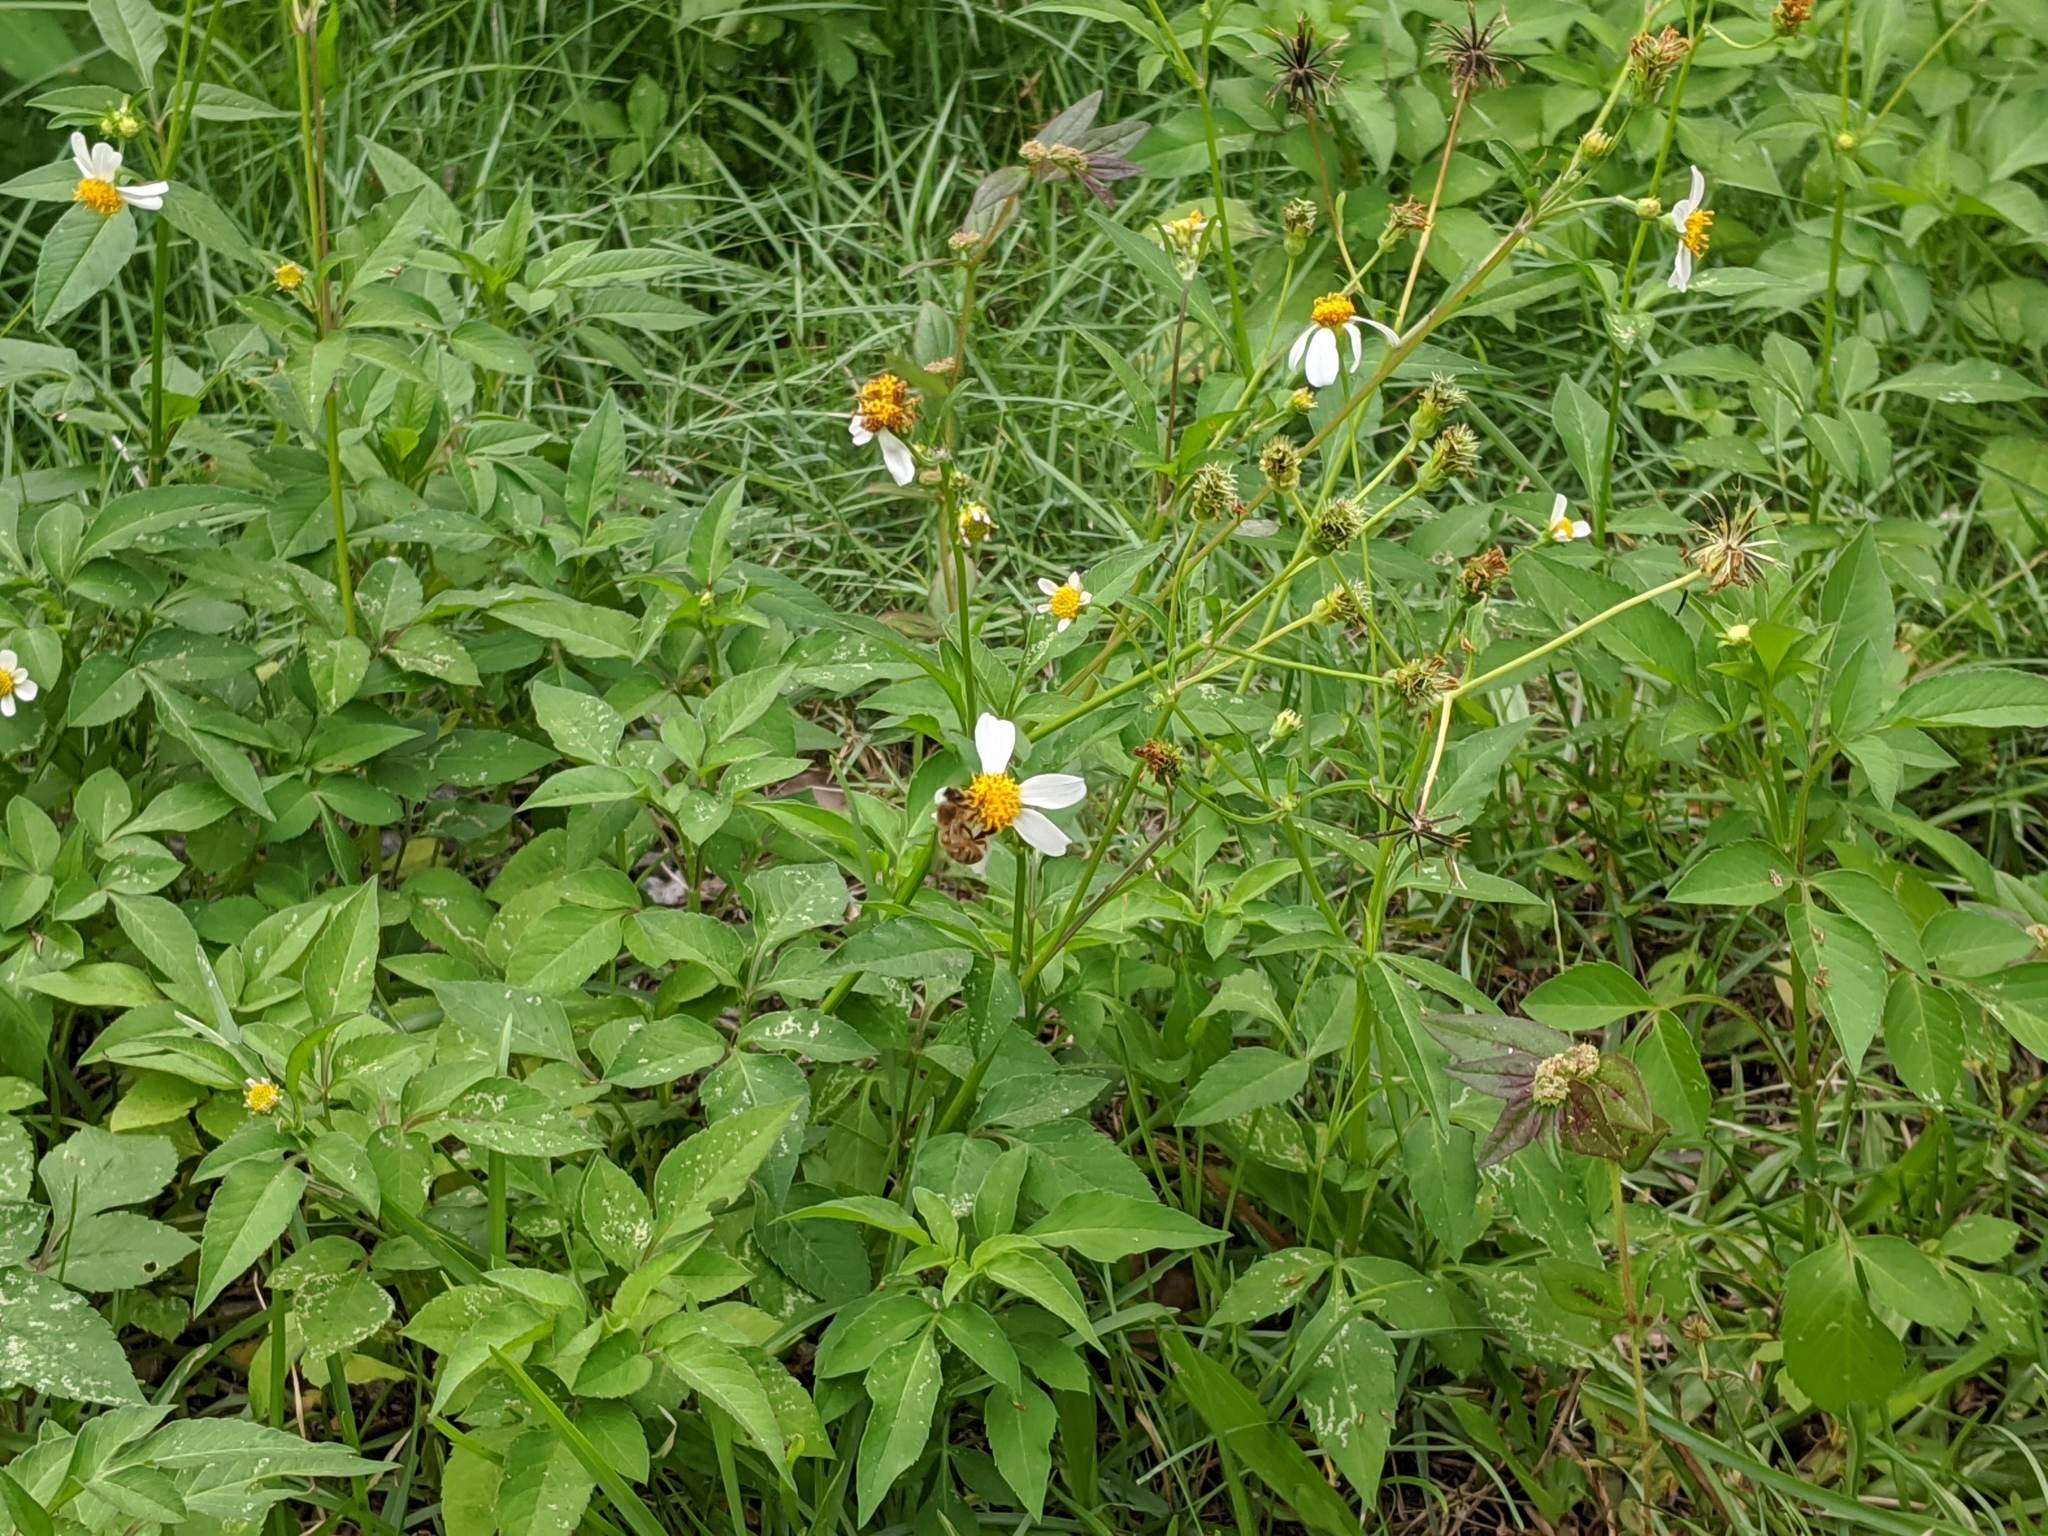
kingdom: Animalia
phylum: Arthropoda
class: Insecta
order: Hymenoptera
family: Apidae
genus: Apis
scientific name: Apis mellifera
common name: Honey bee
